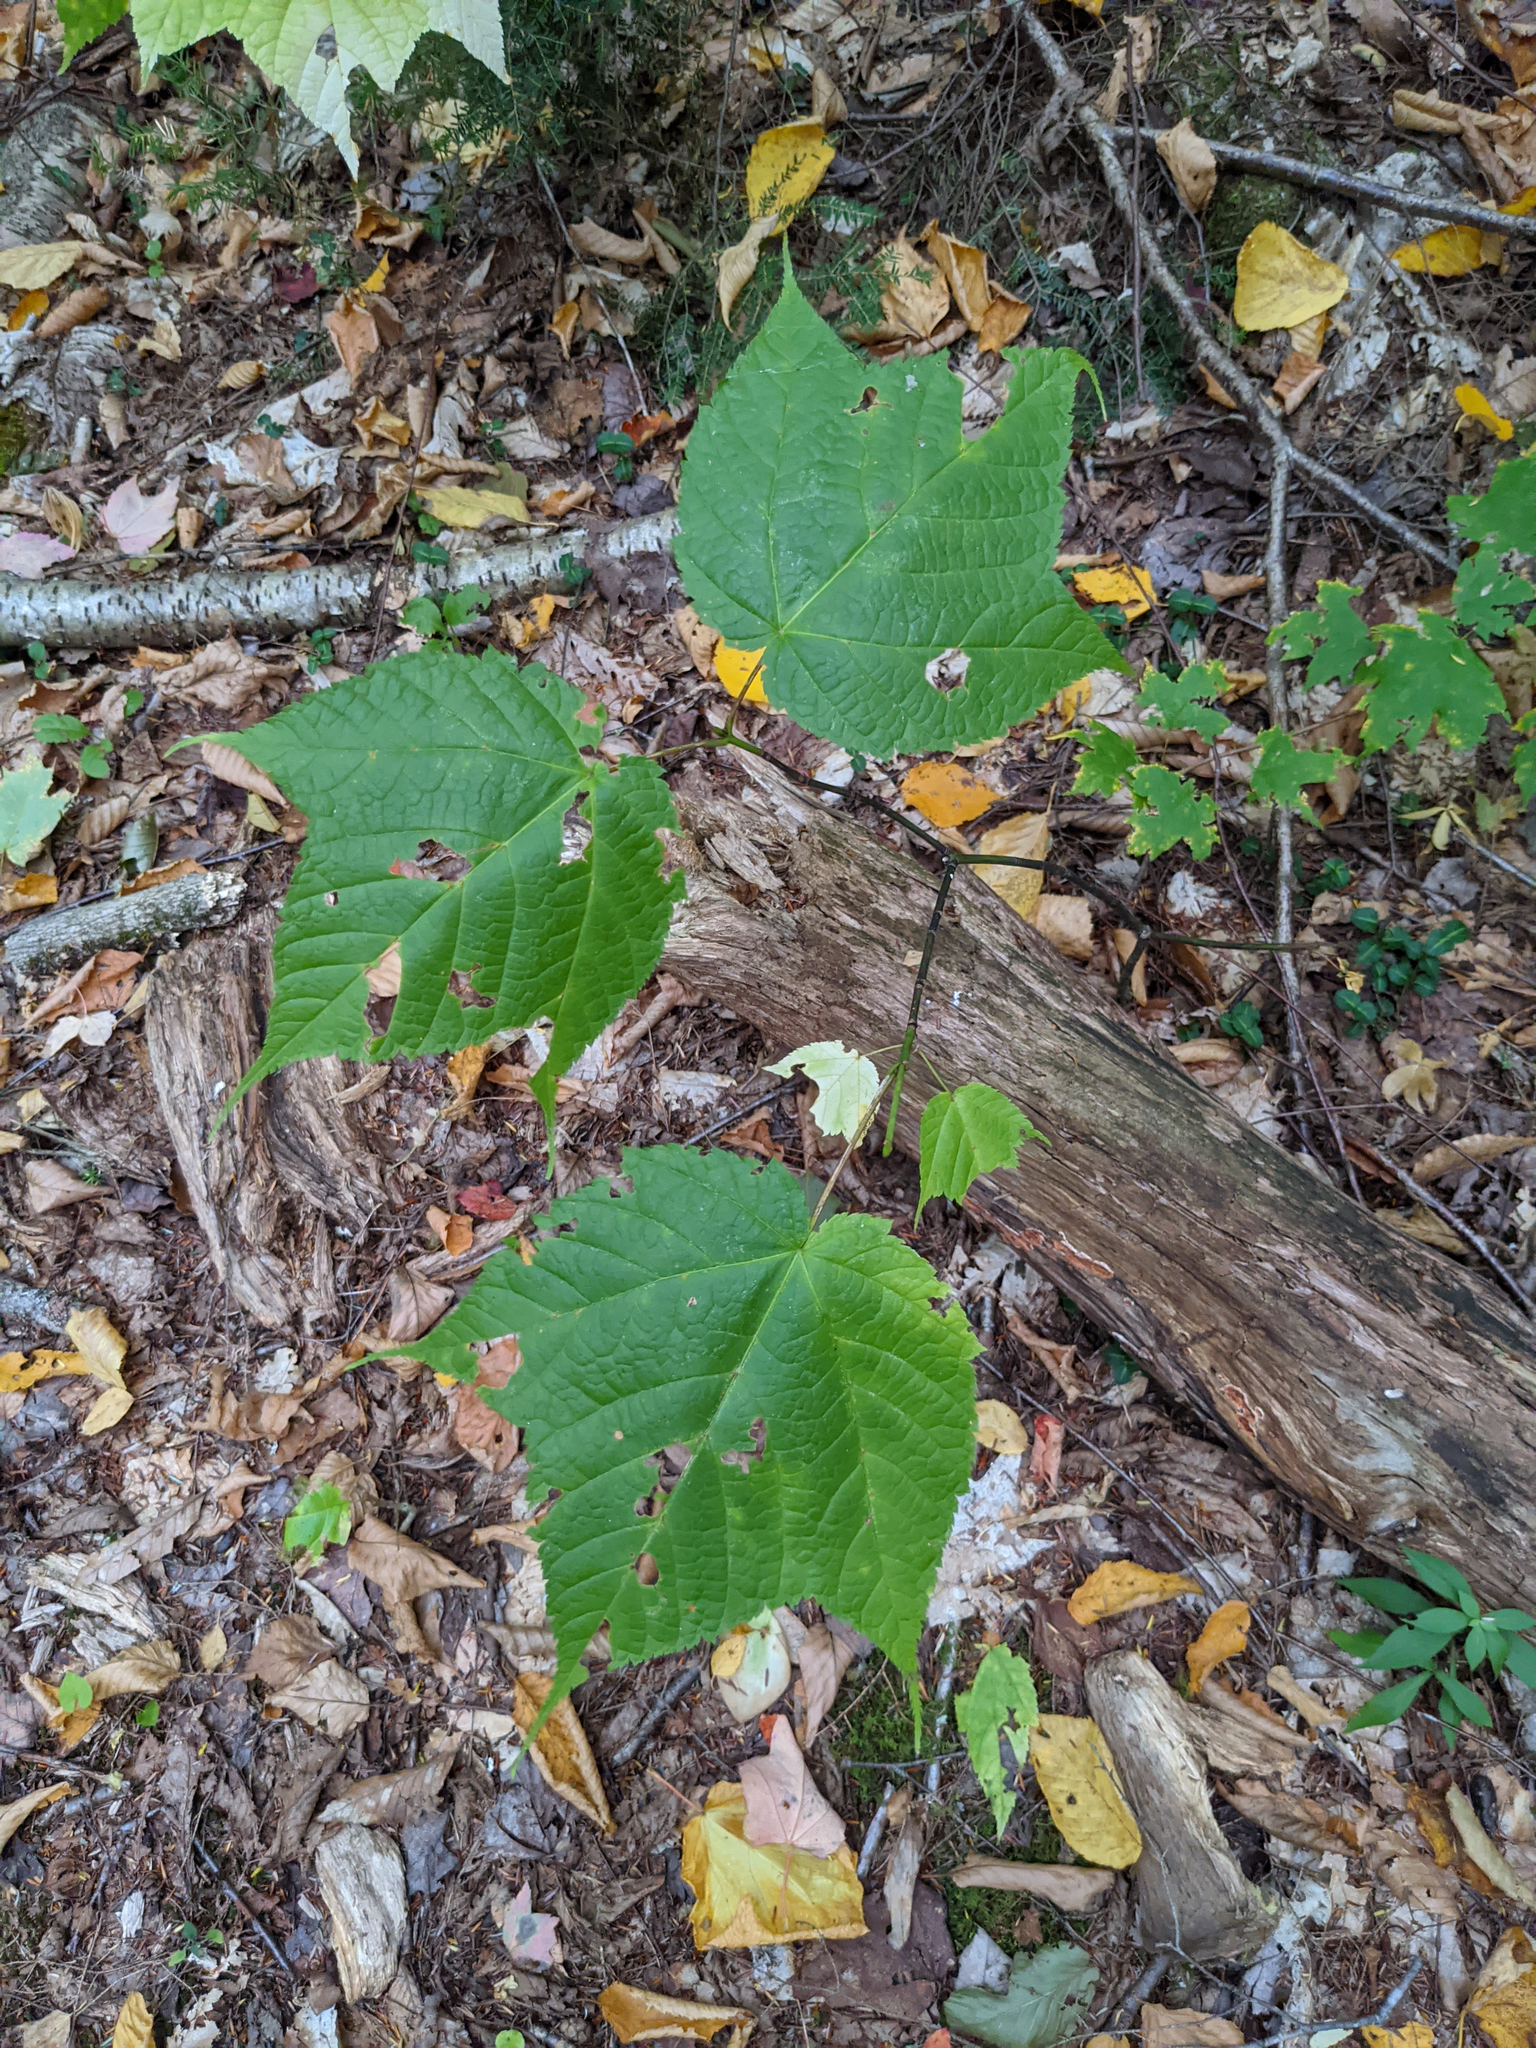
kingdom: Plantae
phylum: Tracheophyta
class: Magnoliopsida
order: Sapindales
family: Sapindaceae
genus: Acer
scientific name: Acer pensylvanicum
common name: Moosewood
